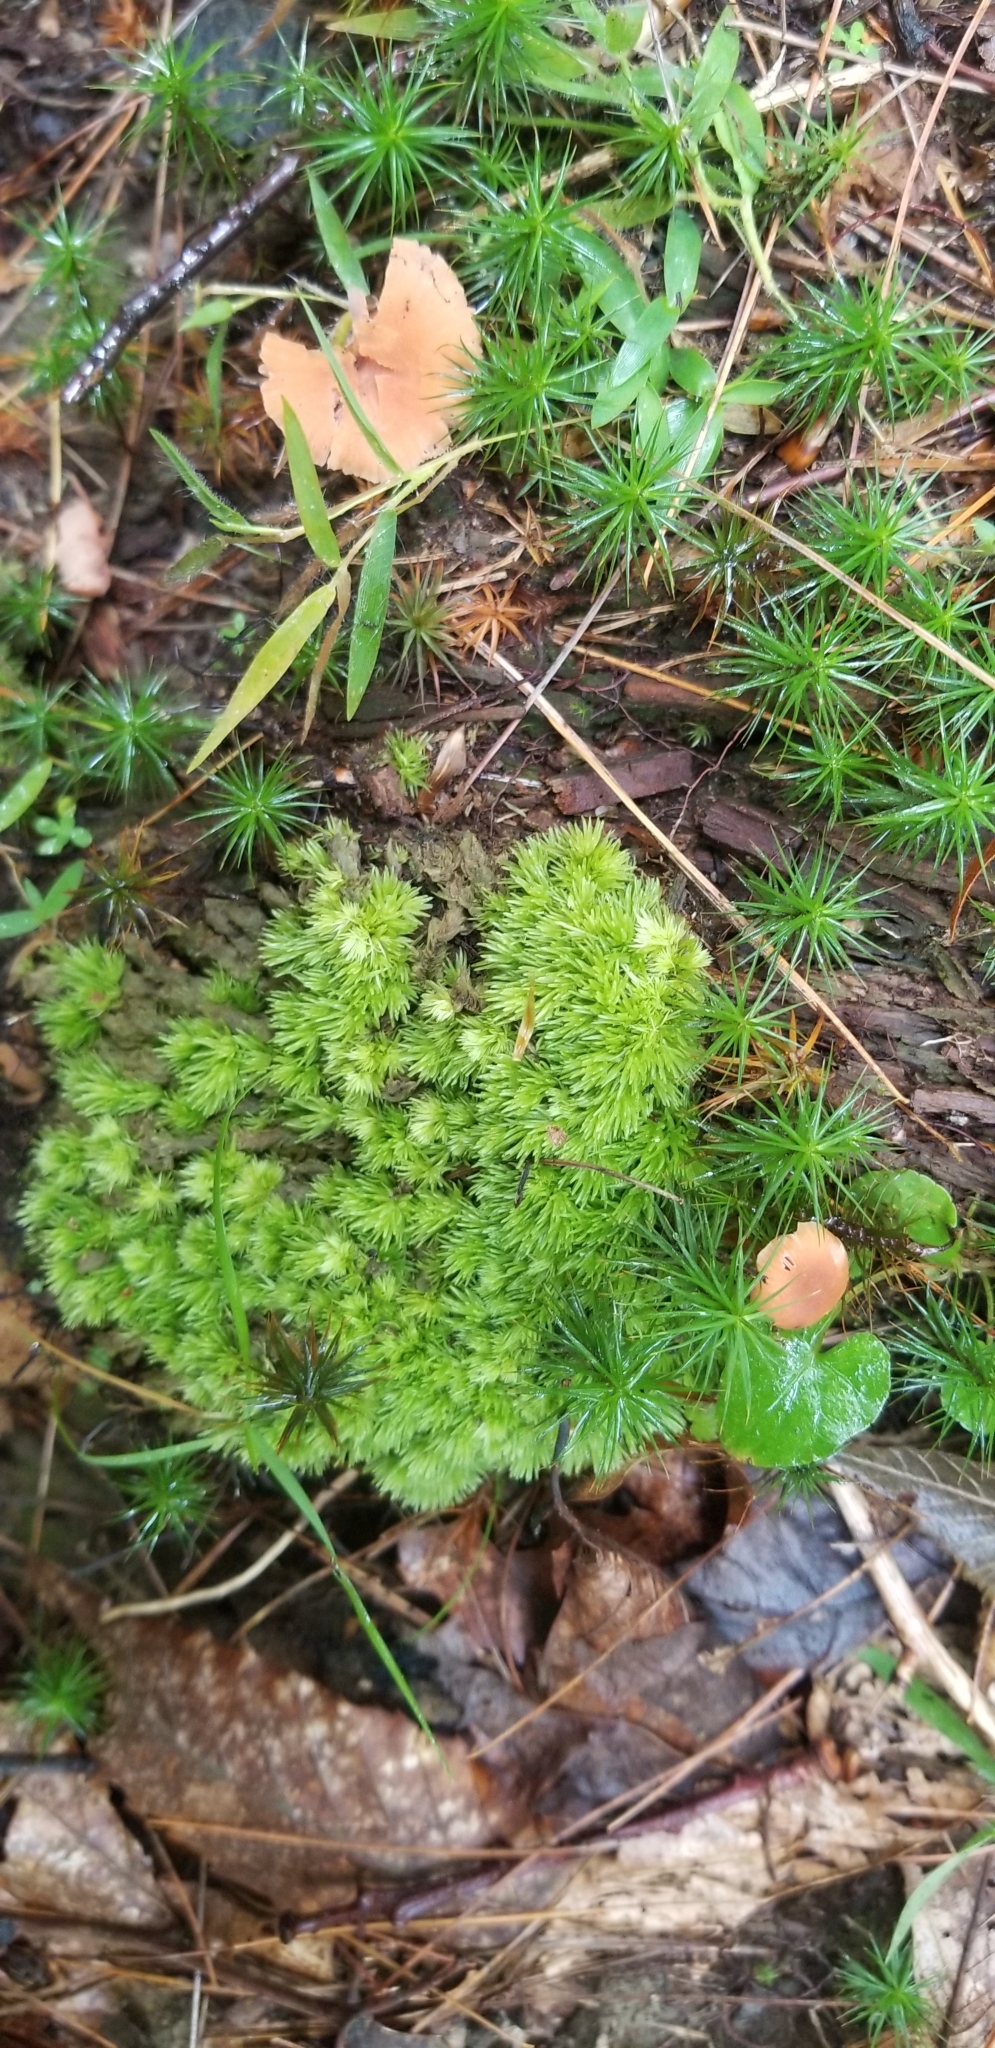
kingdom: Plantae
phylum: Bryophyta
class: Bryopsida
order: Dicranales
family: Leucobryaceae
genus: Leucobryum
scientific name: Leucobryum glaucum
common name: Large white-moss
